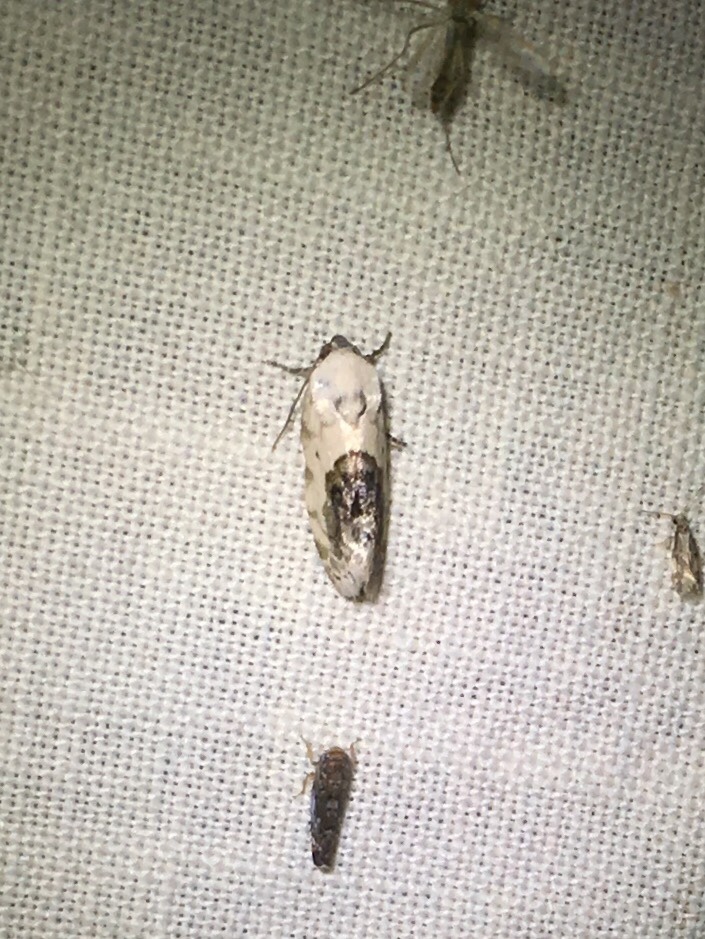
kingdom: Animalia
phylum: Arthropoda
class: Insecta
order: Lepidoptera
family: Noctuidae
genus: Acontia
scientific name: Acontia erastrioides
